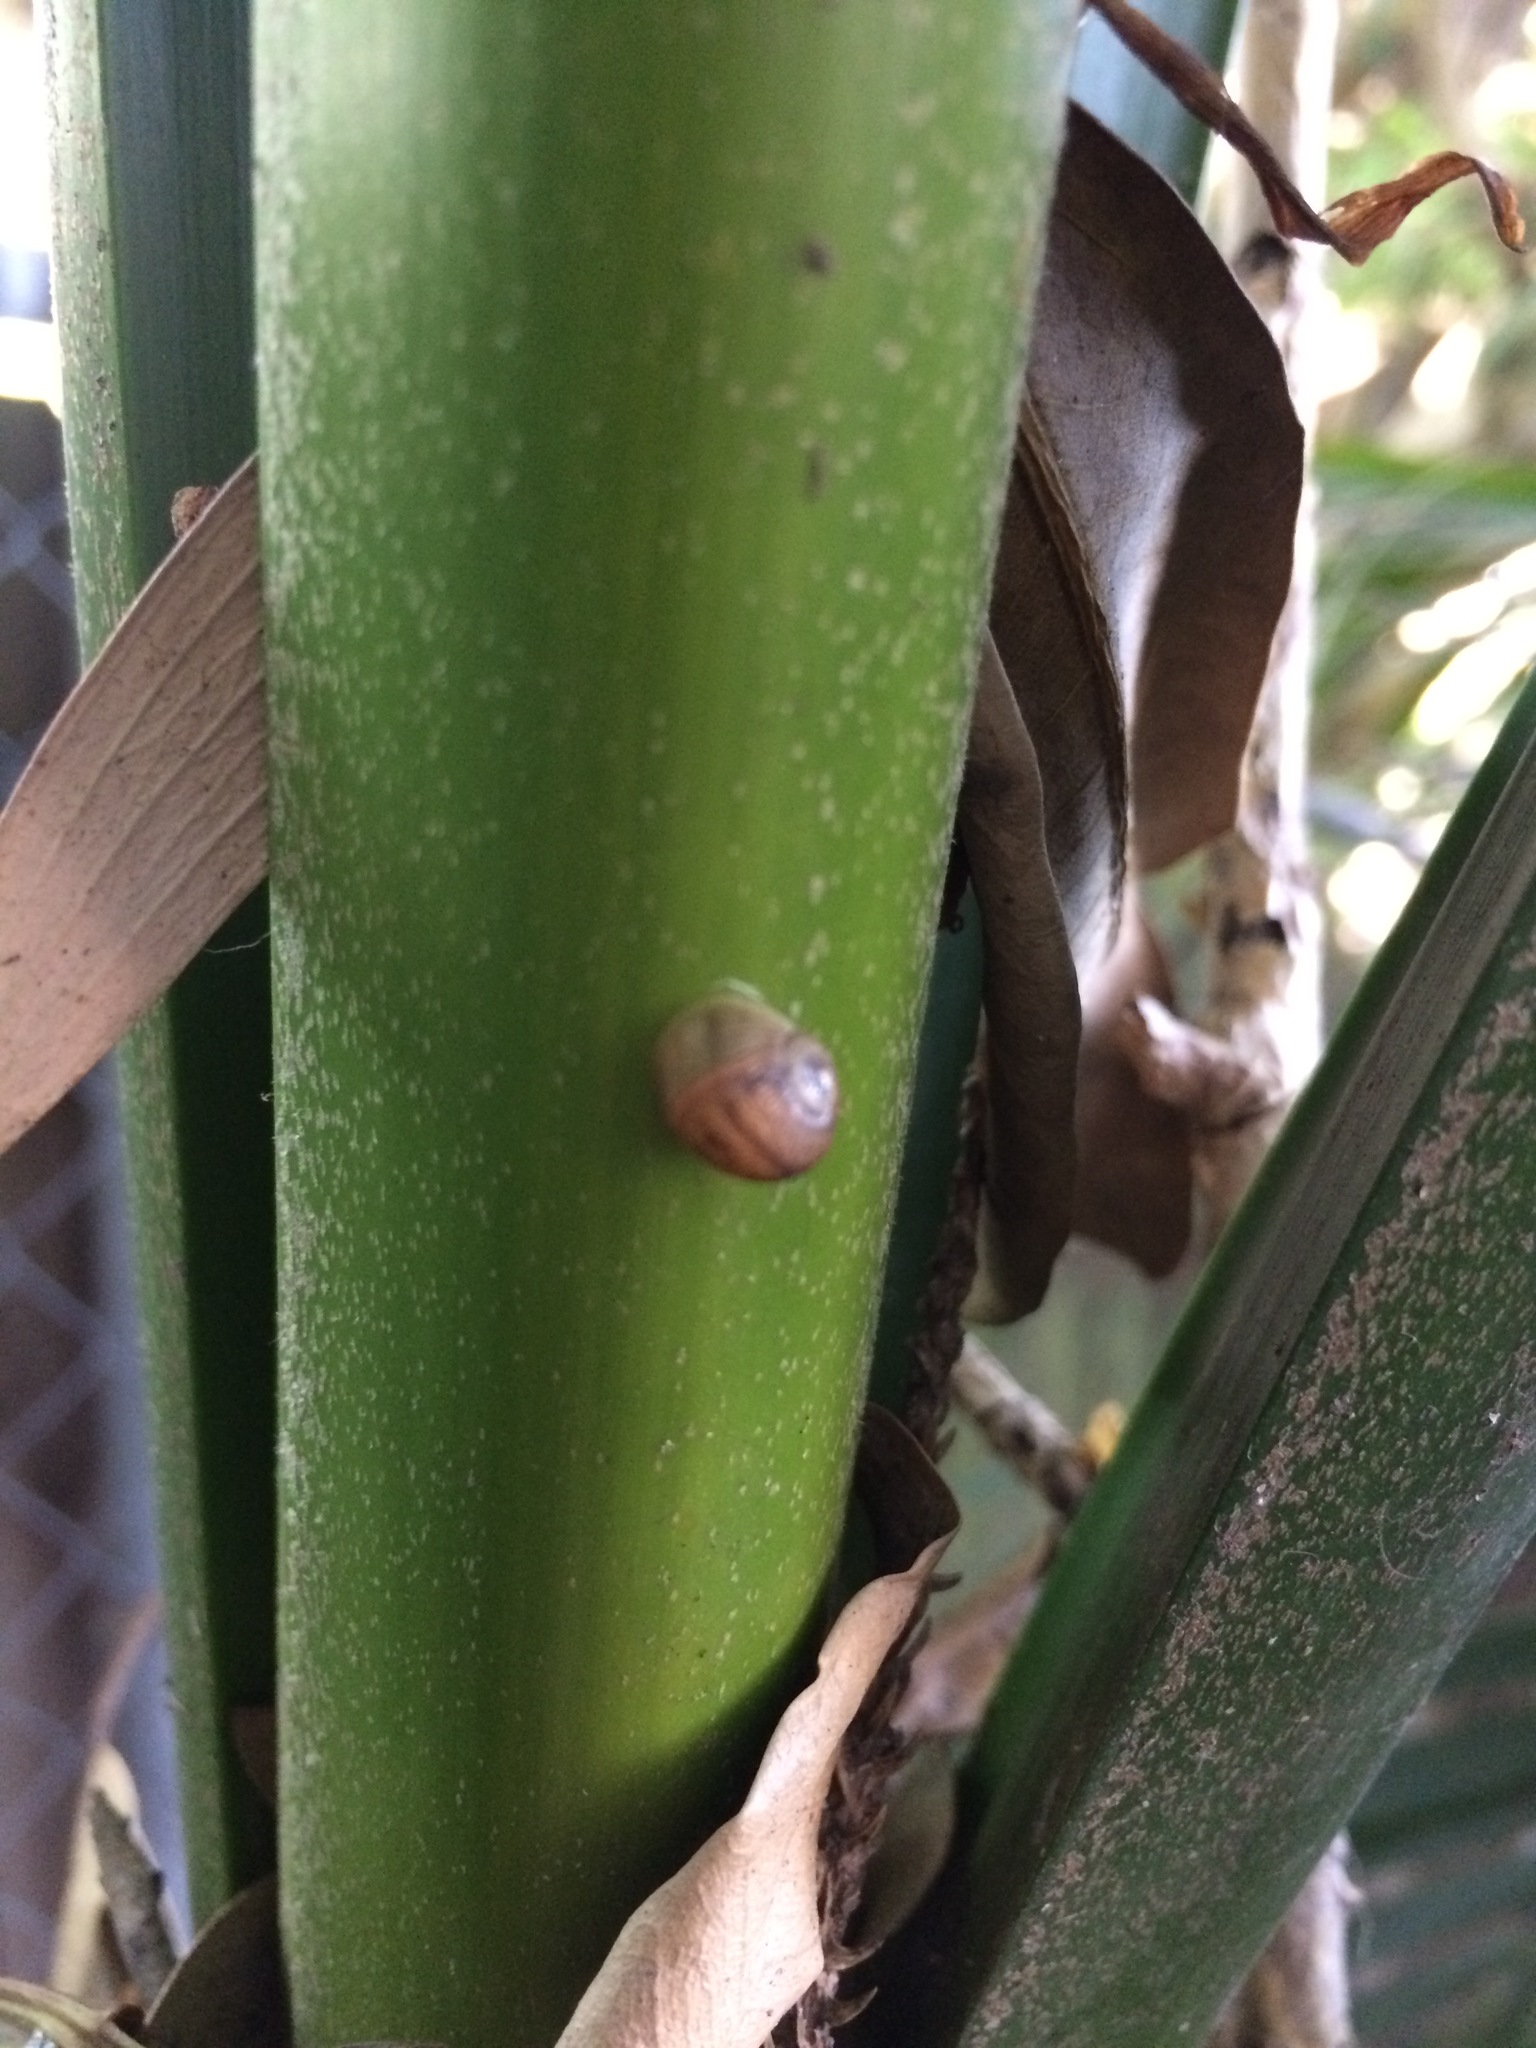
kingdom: Animalia
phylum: Mollusca
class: Gastropoda
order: Stylommatophora
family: Helicidae
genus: Cornu
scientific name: Cornu aspersum
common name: Brown garden snail
